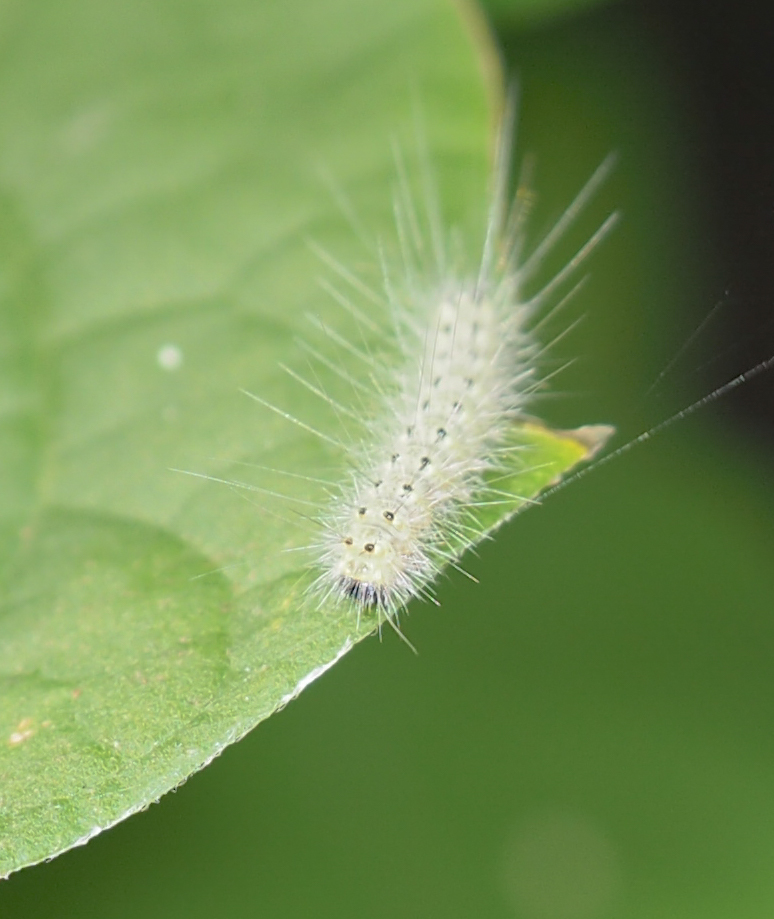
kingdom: Animalia
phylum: Arthropoda
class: Insecta
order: Lepidoptera
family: Erebidae
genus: Hyphantria
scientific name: Hyphantria cunea
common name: American white moth
